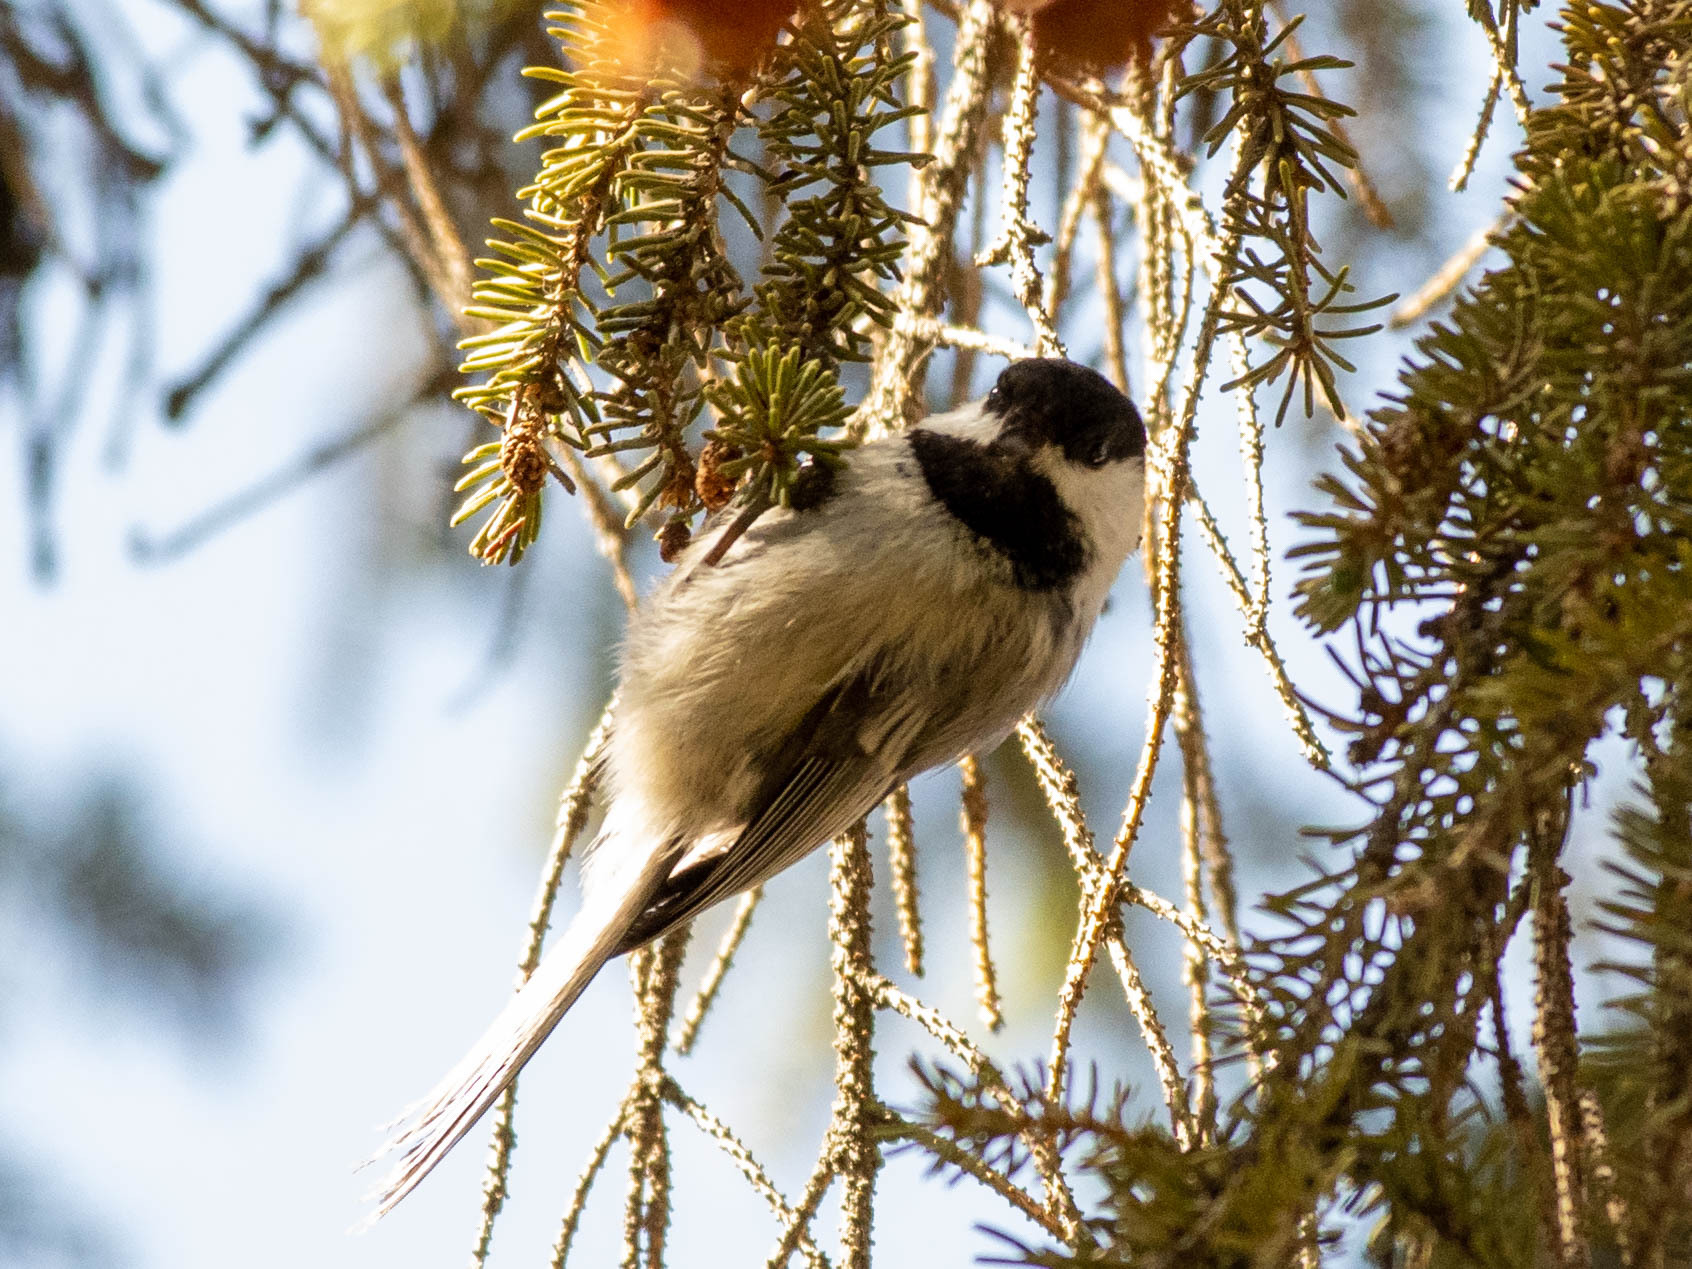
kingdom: Animalia
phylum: Chordata
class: Aves
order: Passeriformes
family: Paridae
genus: Poecile
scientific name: Poecile atricapillus
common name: Black-capped chickadee
